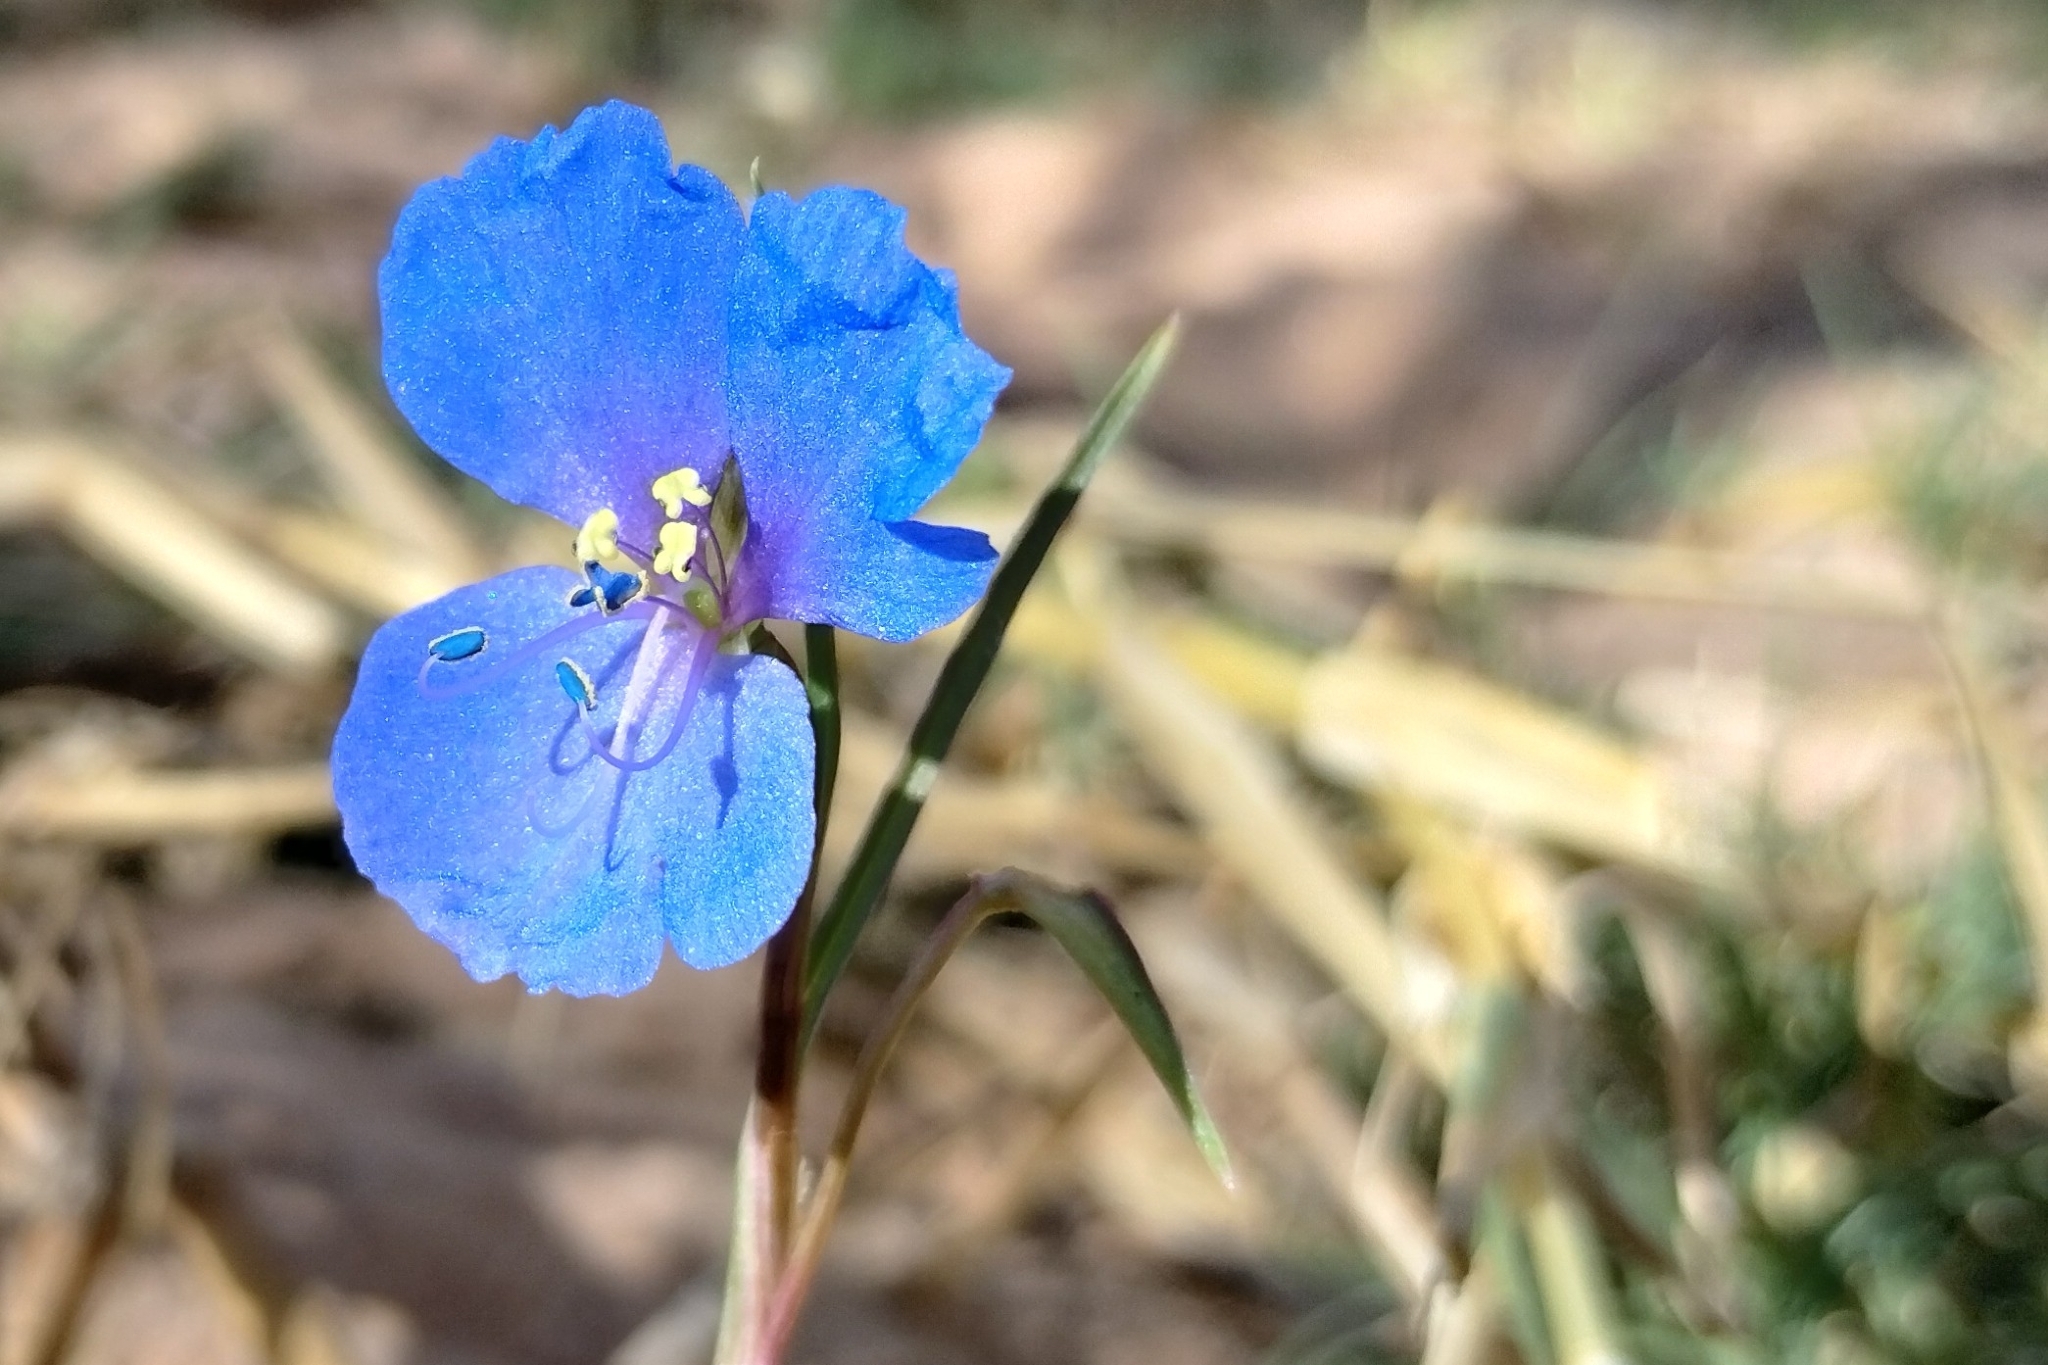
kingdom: Plantae
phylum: Tracheophyta
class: Liliopsida
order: Commelinales
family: Commelinaceae
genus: Commelina
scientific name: Commelina agrostophylla
